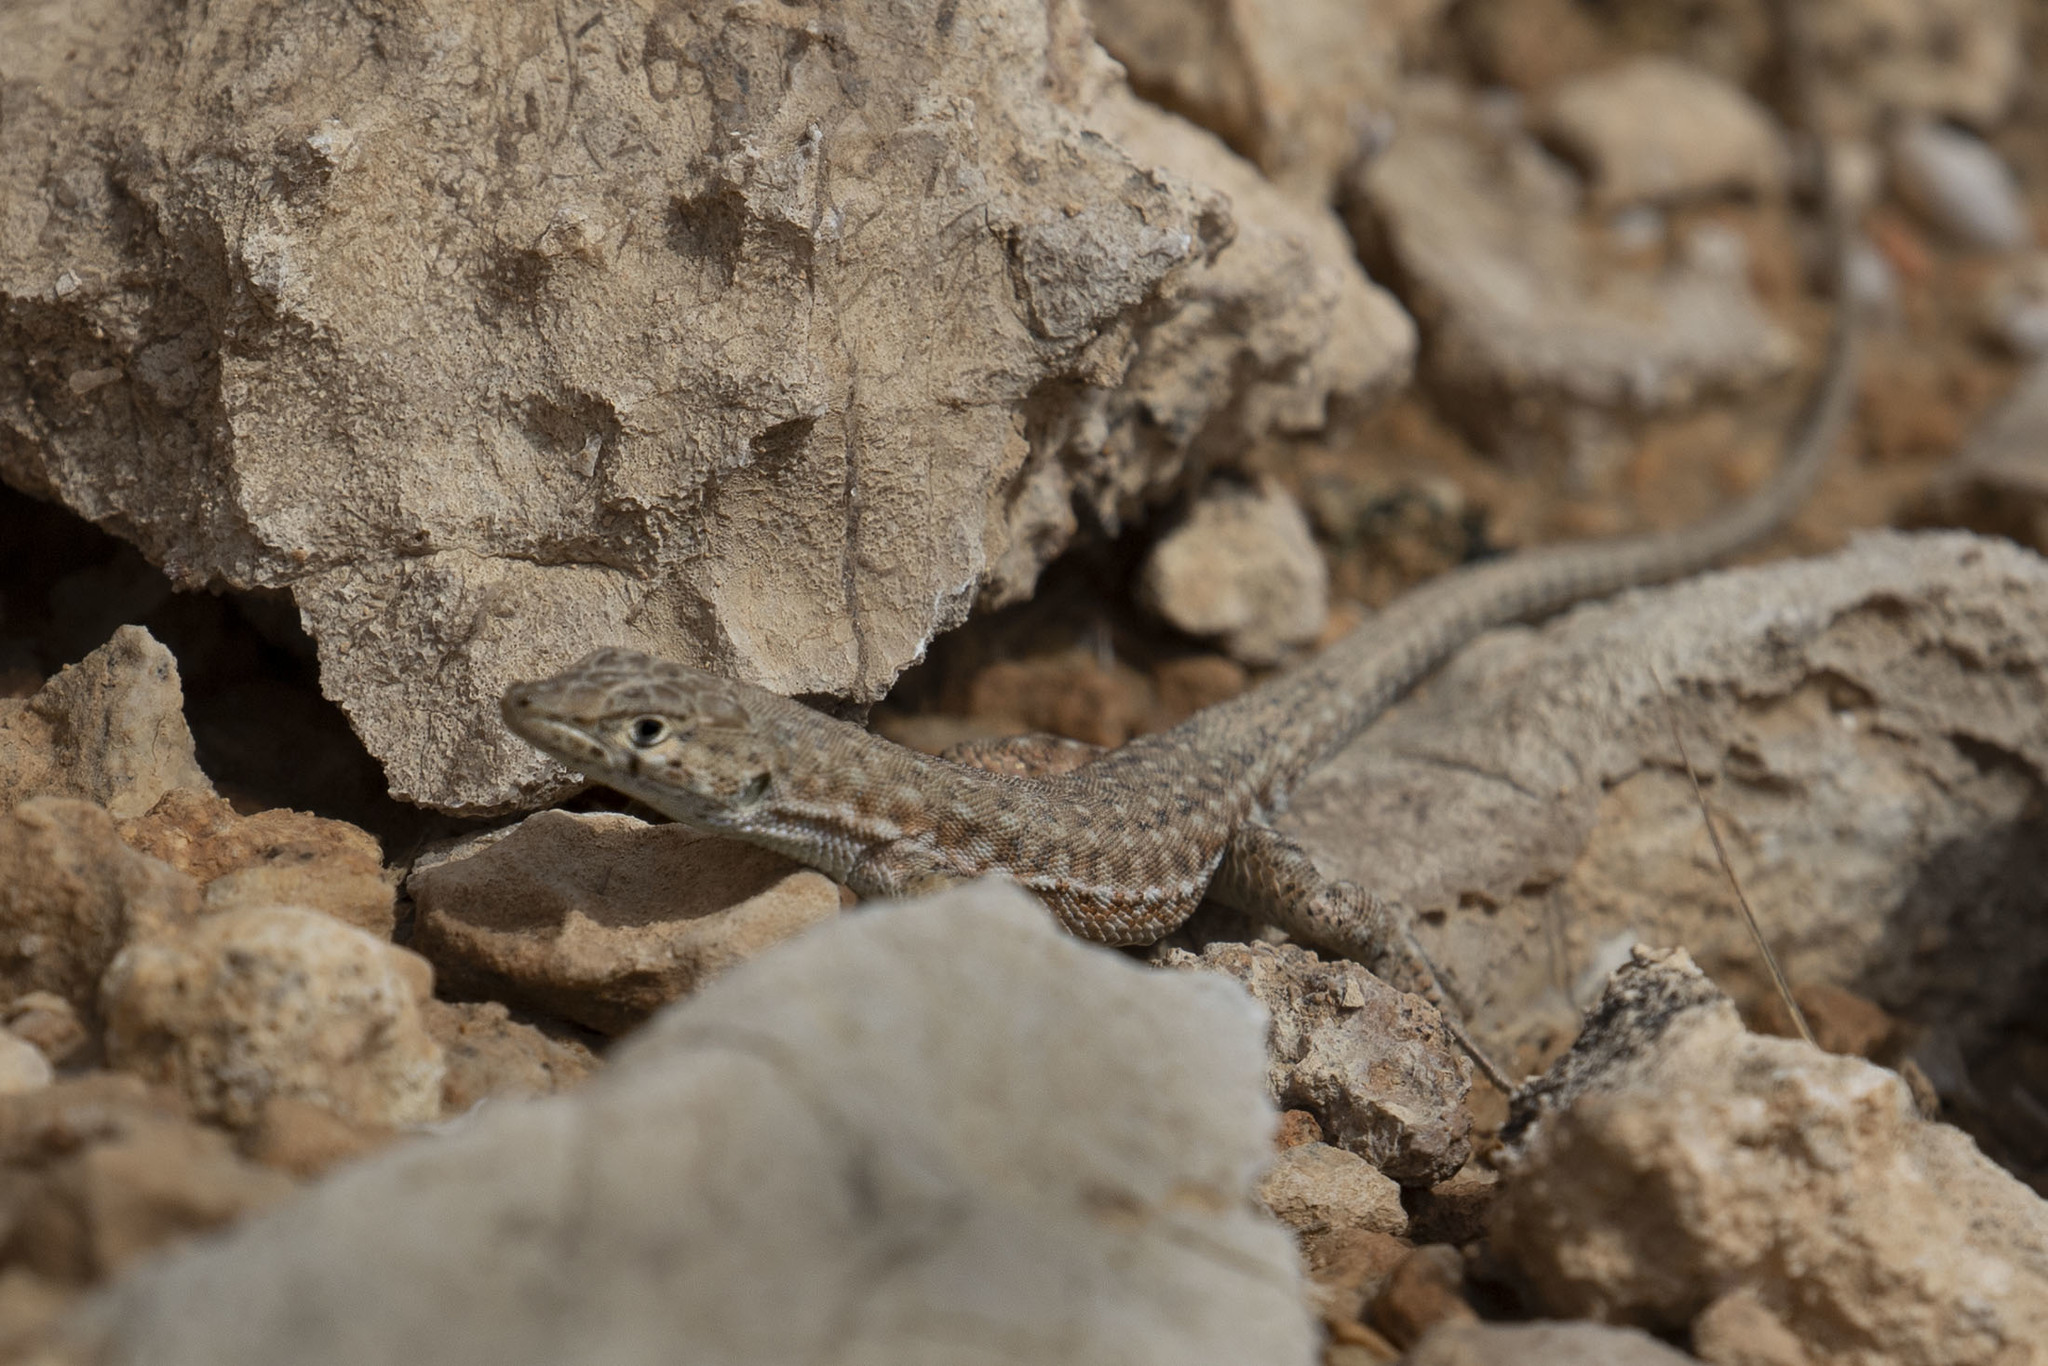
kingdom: Animalia
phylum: Chordata
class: Squamata
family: Lacertidae
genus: Mesalina
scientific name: Mesalina bahaeldini
